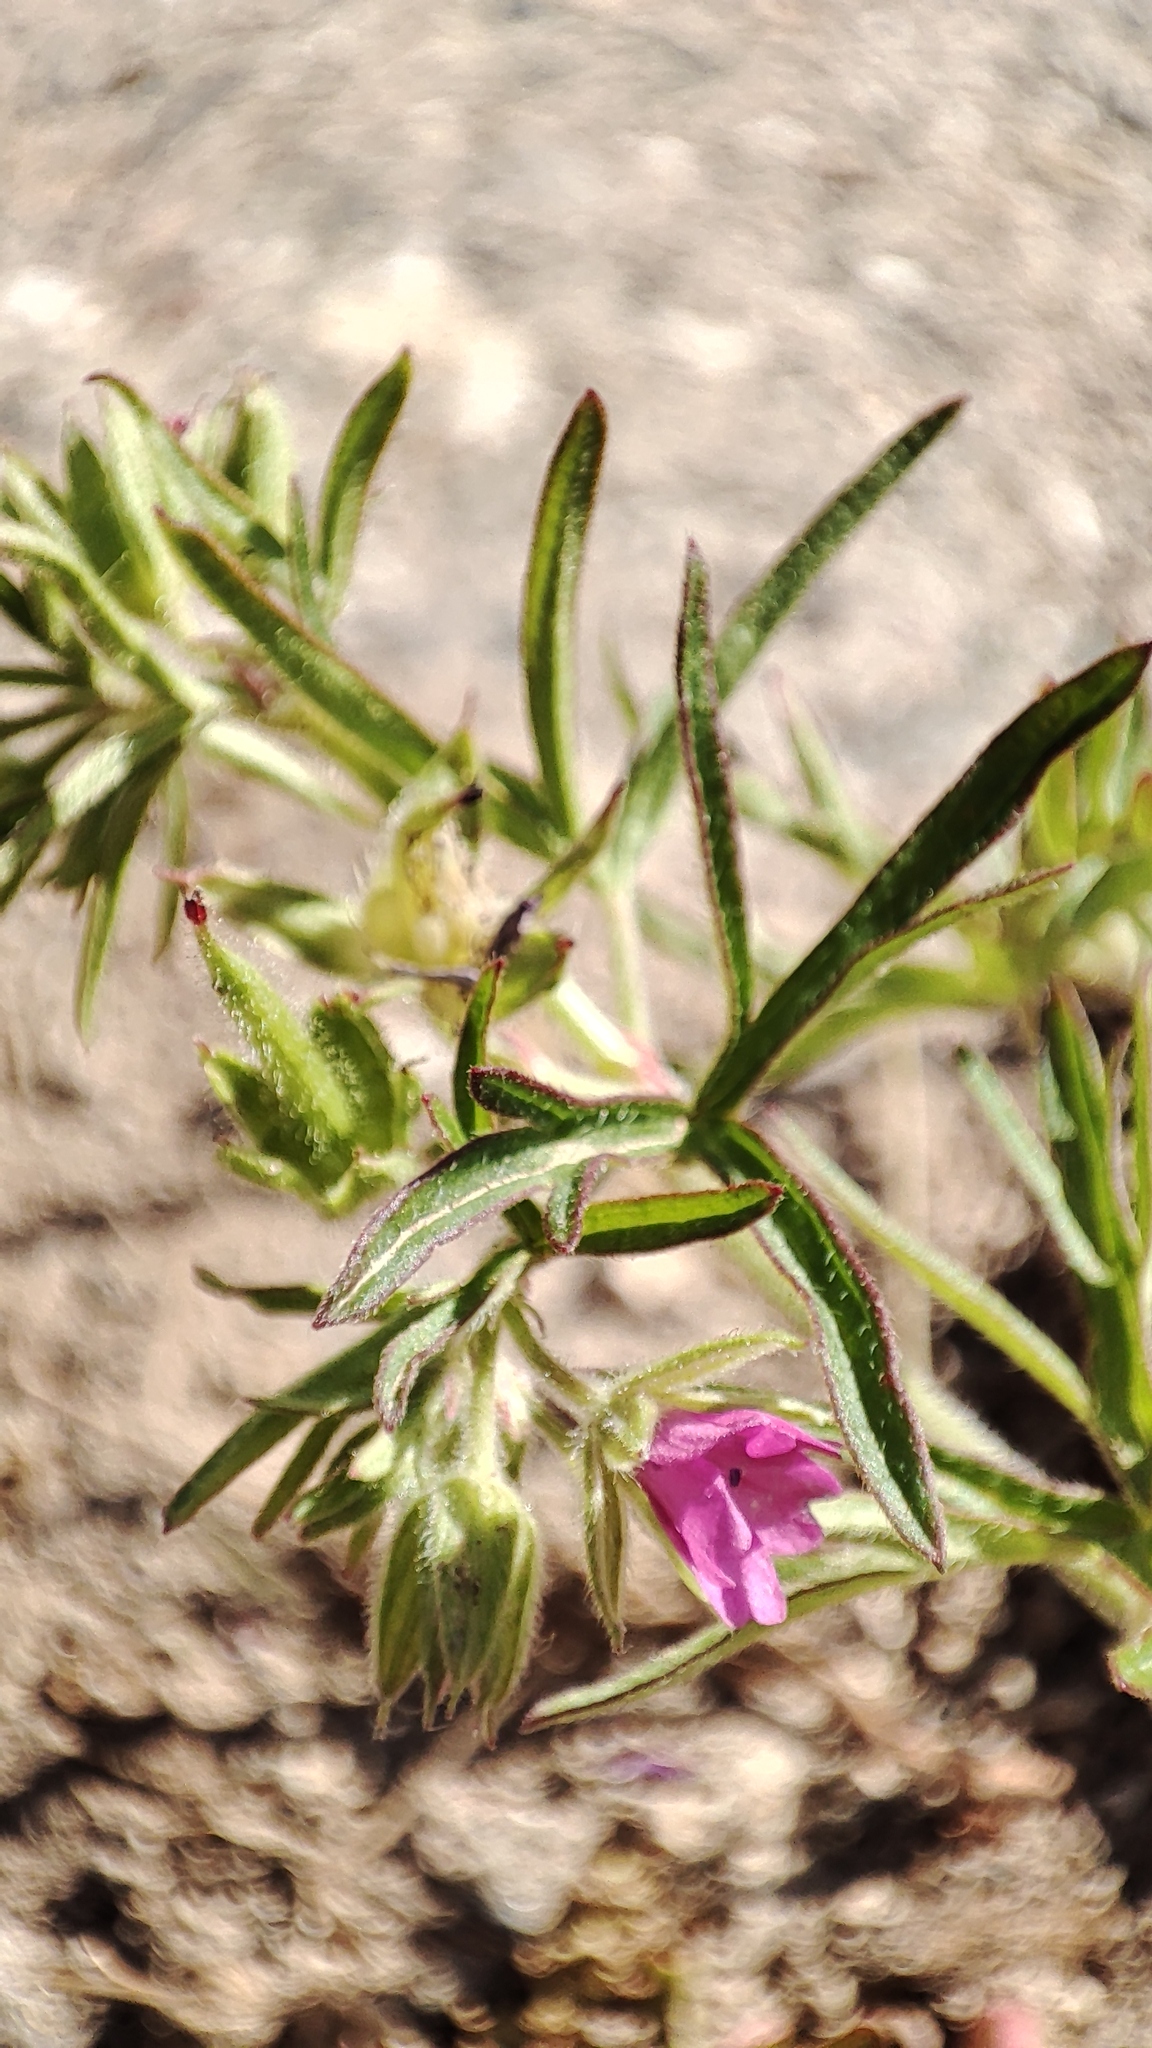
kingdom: Plantae
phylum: Tracheophyta
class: Magnoliopsida
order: Geraniales
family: Geraniaceae
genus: Geranium
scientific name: Geranium dissectum
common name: Cut-leaved crane's-bill
